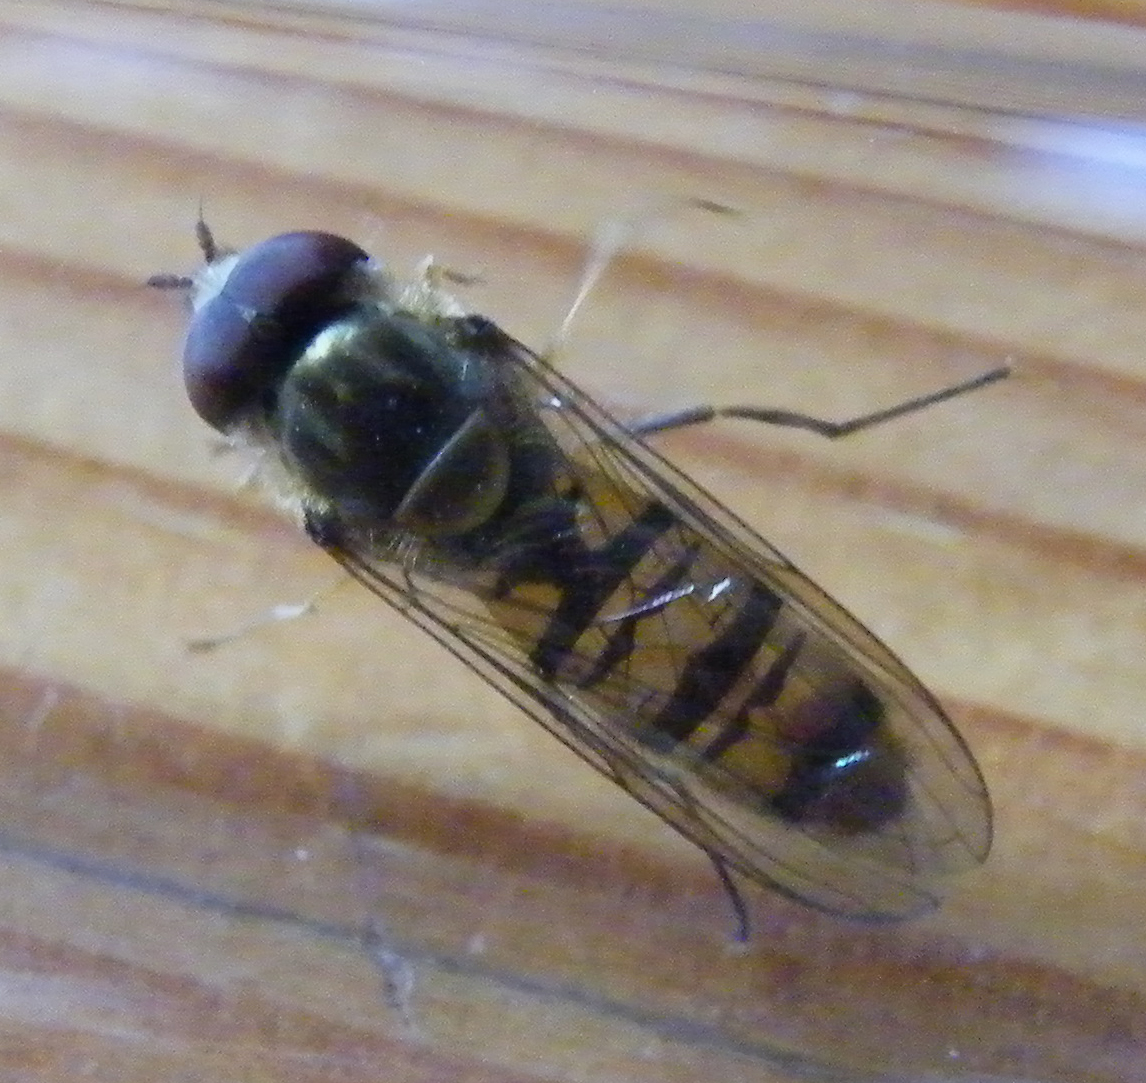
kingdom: Animalia
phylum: Arthropoda
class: Insecta
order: Diptera
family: Syrphidae
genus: Episyrphus
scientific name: Episyrphus balteatus
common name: Marmalade hoverfly
